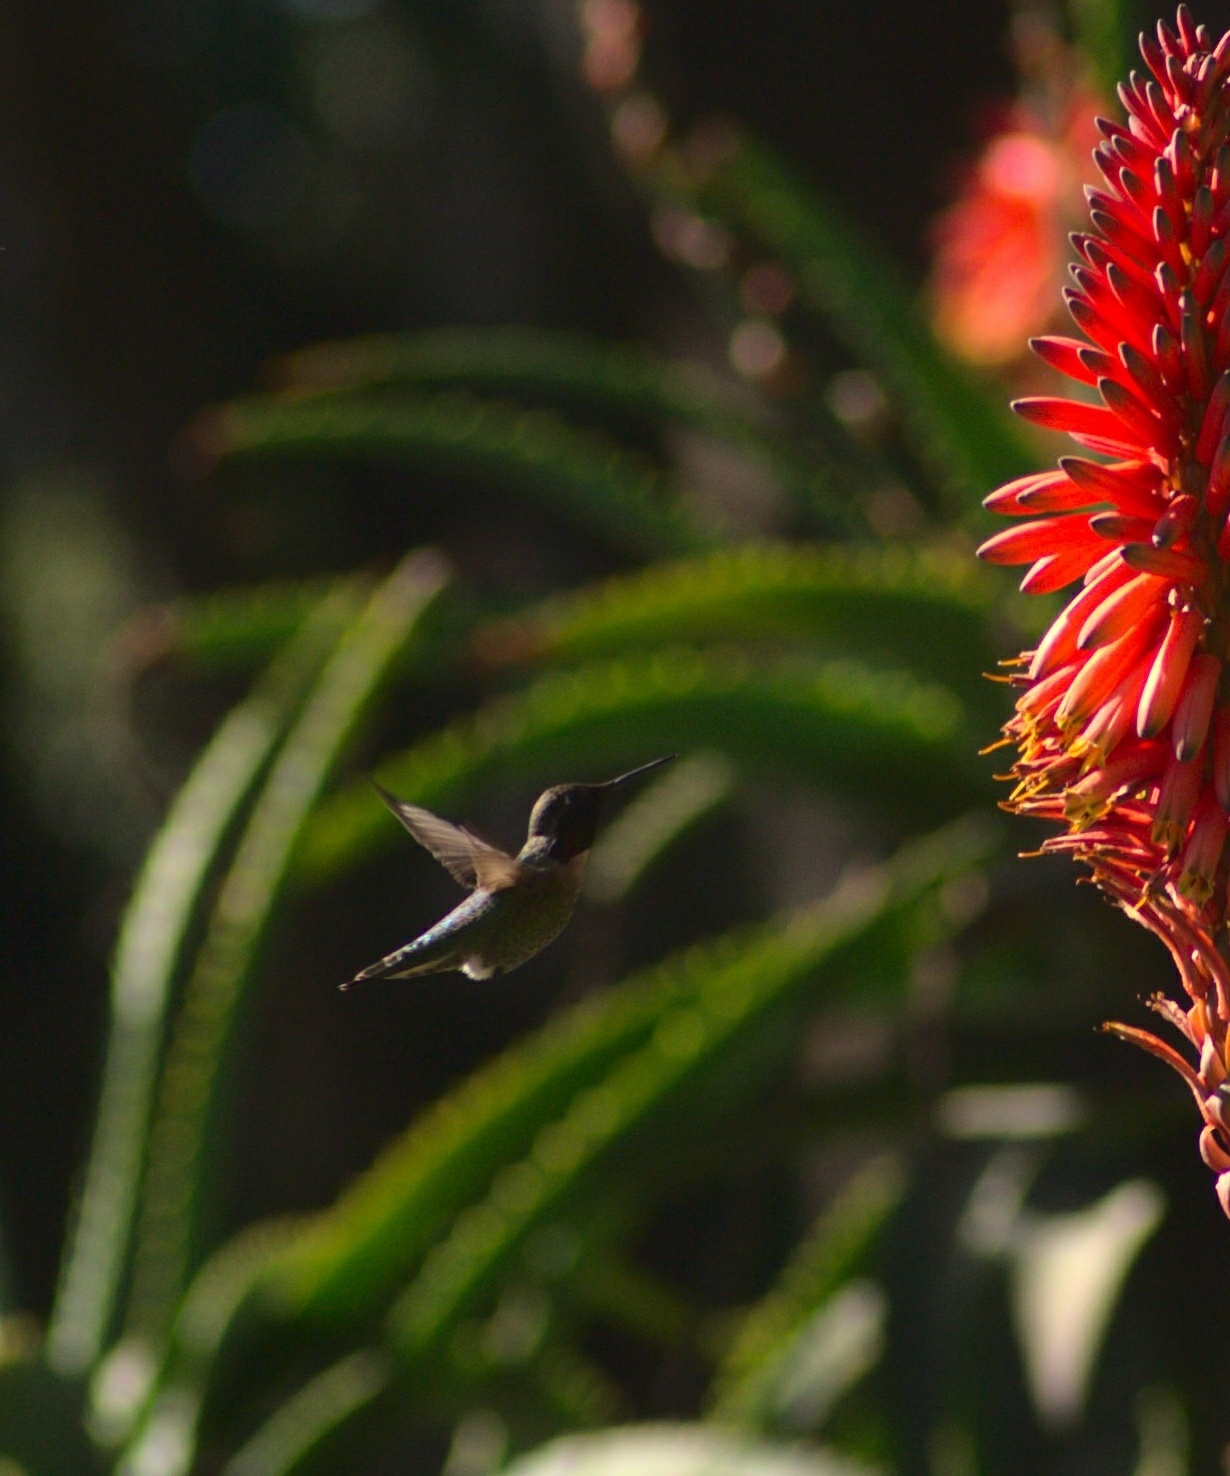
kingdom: Animalia
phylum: Chordata
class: Aves
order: Apodiformes
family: Trochilidae
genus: Calypte
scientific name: Calypte anna
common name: Anna's hummingbird
